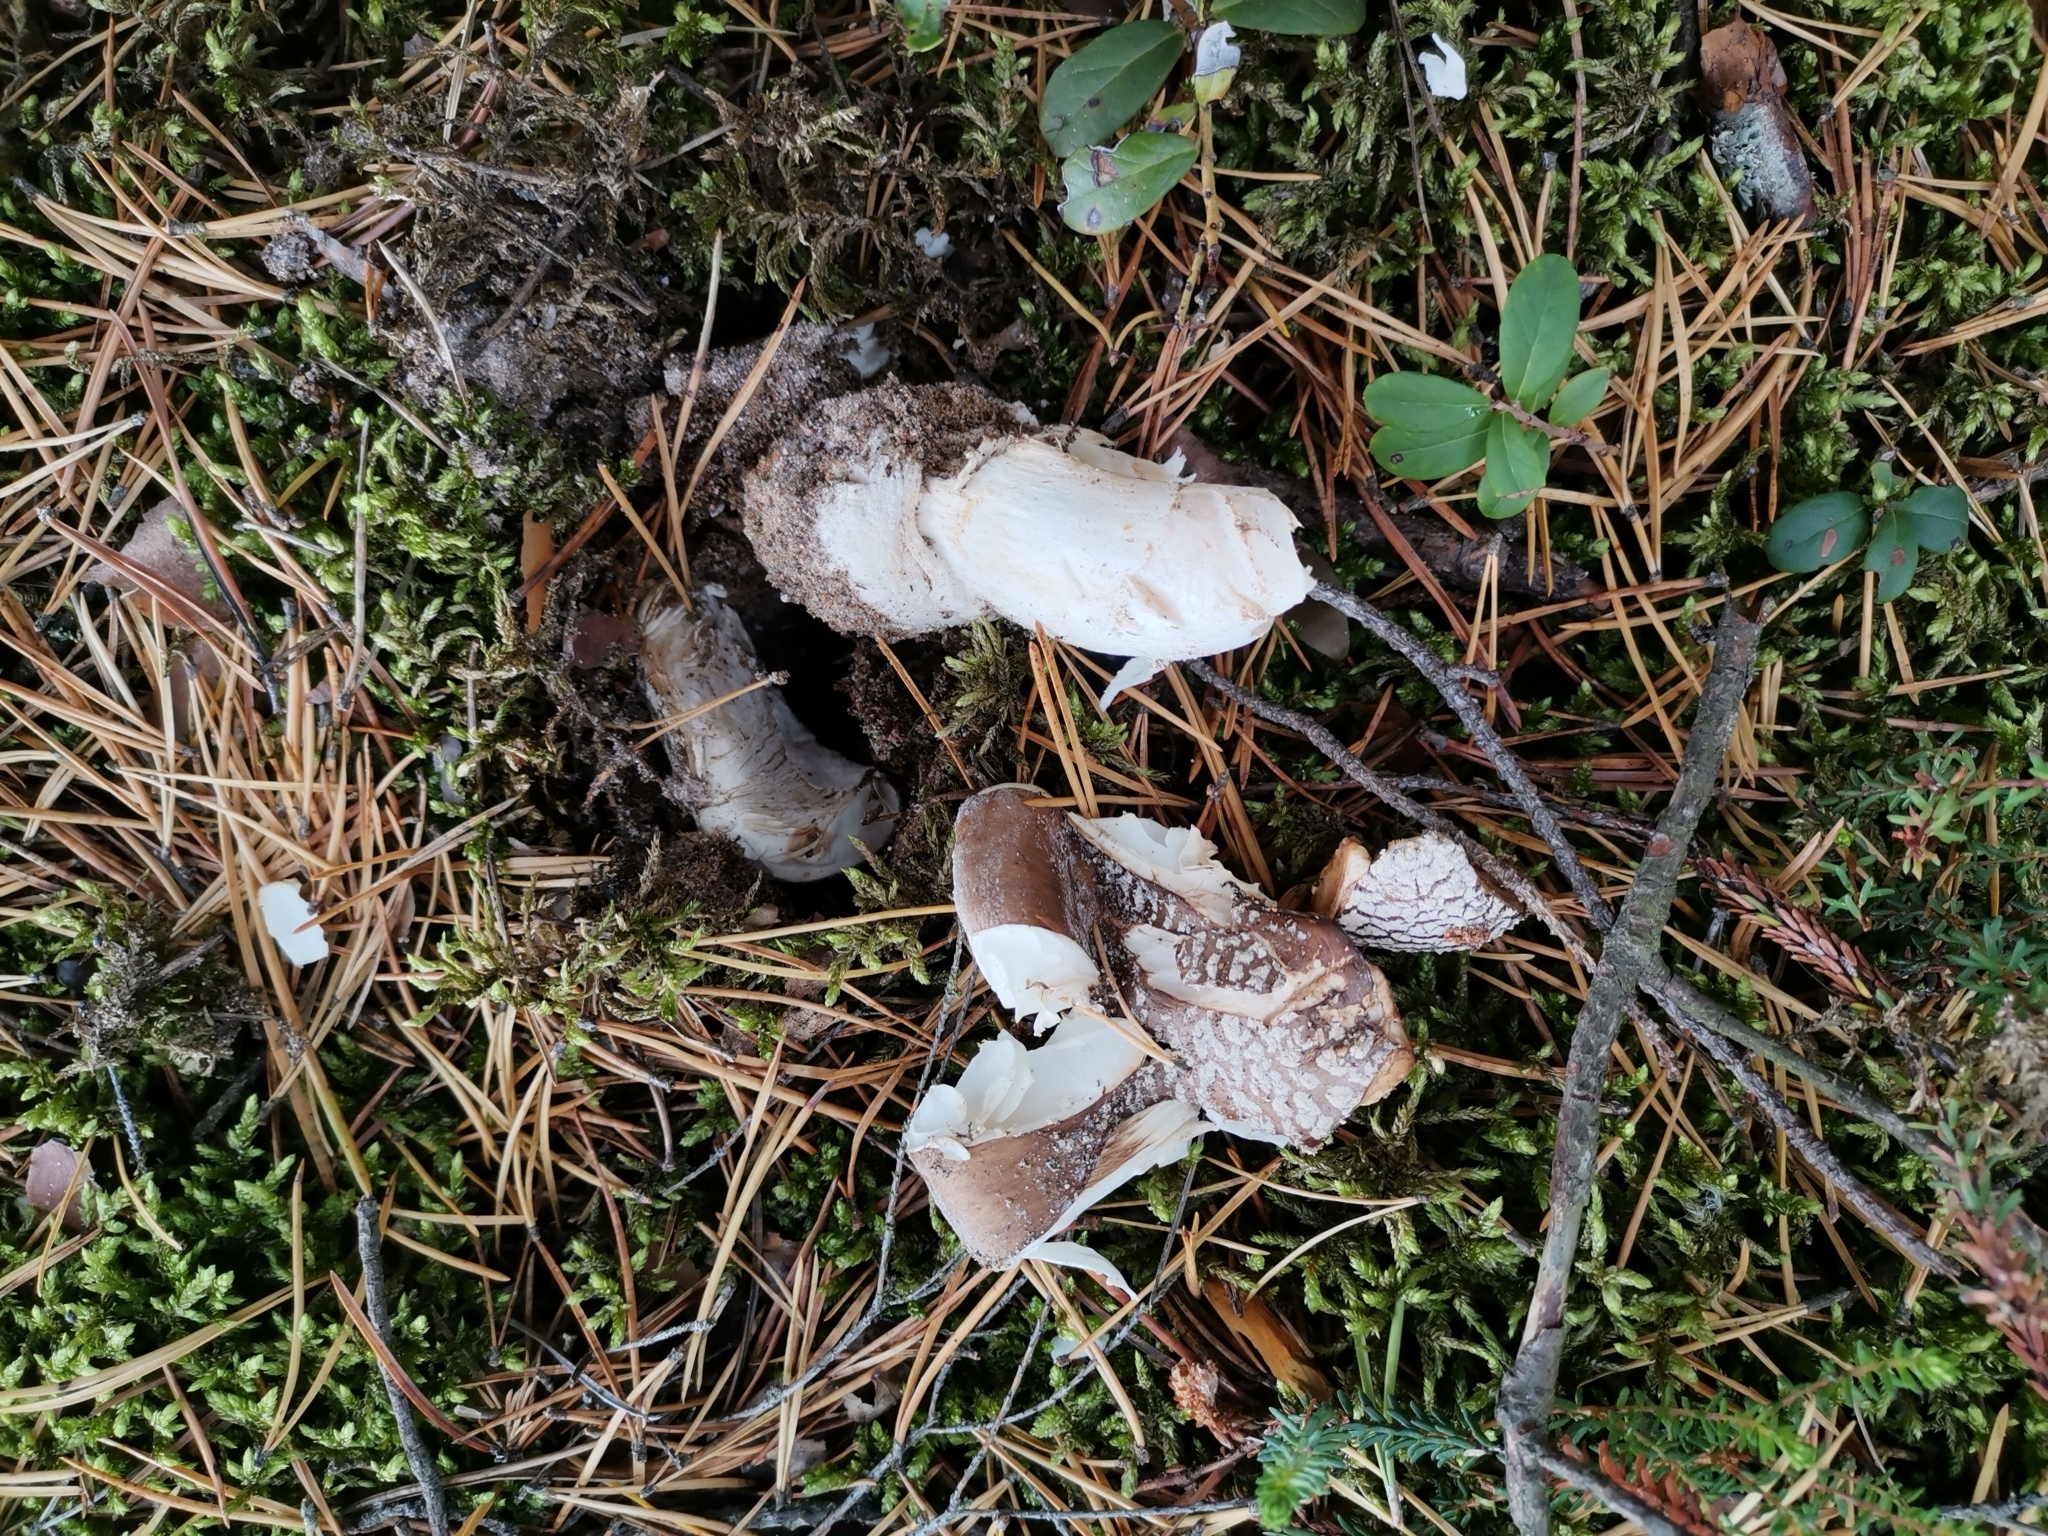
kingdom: Fungi
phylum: Basidiomycota
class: Agaricomycetes
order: Agaricales
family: Amanitaceae
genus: Amanita
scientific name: Amanita pantherina
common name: Panthercap
